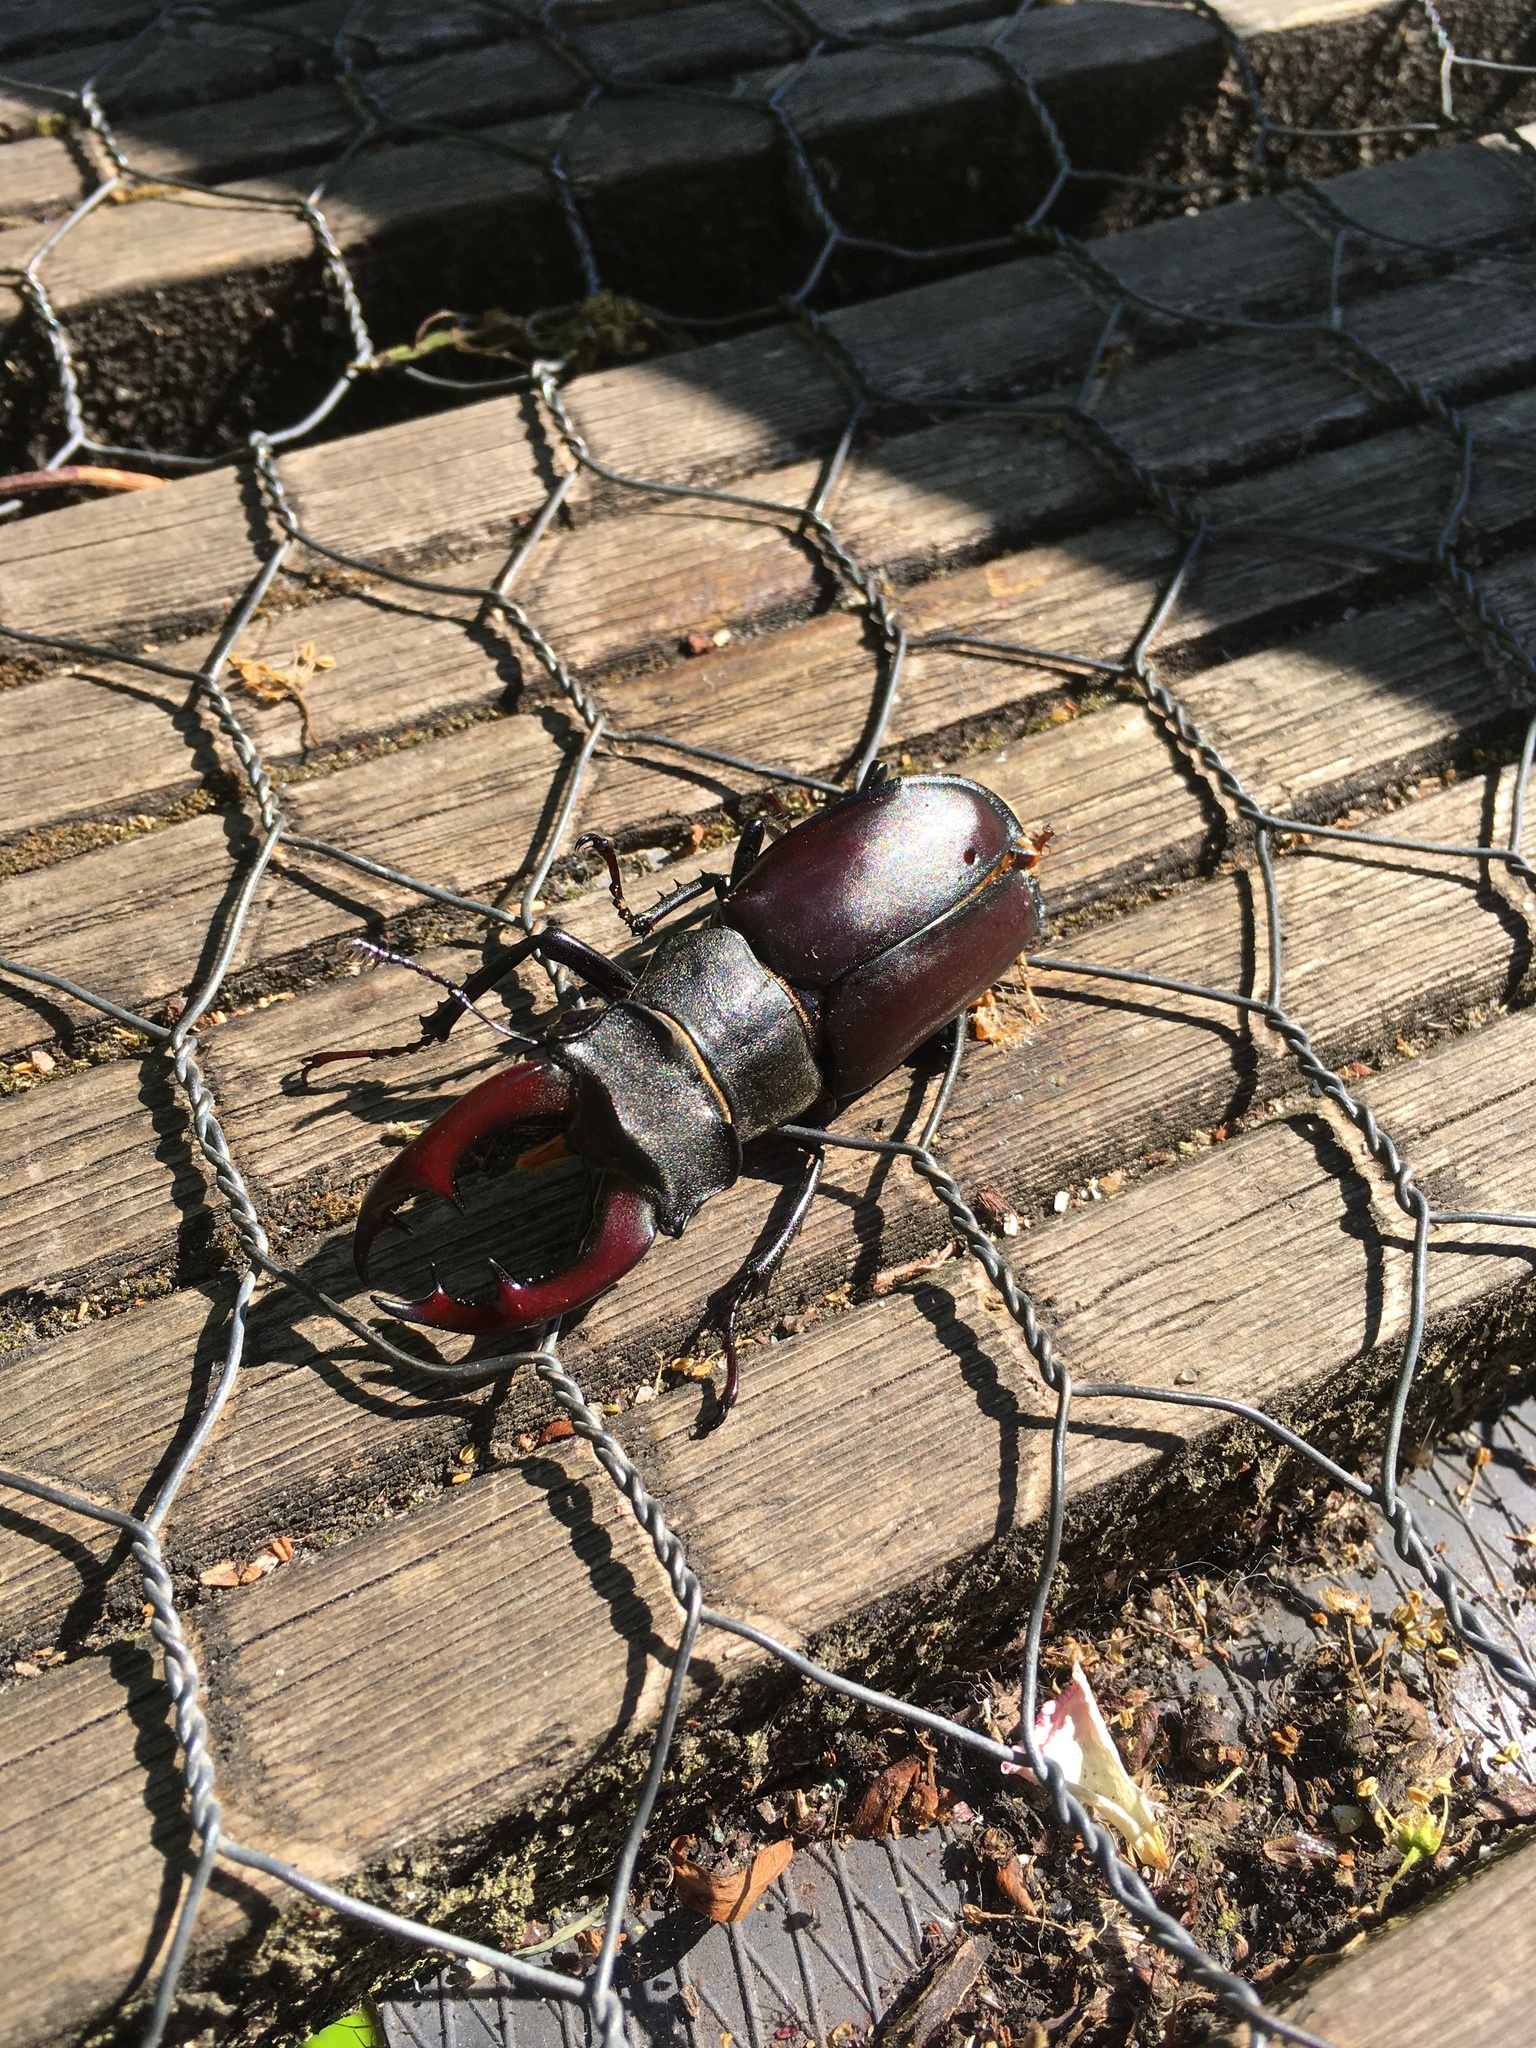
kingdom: Animalia
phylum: Arthropoda
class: Insecta
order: Coleoptera
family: Lucanidae
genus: Lucanus
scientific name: Lucanus cervus
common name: Stag beetle
